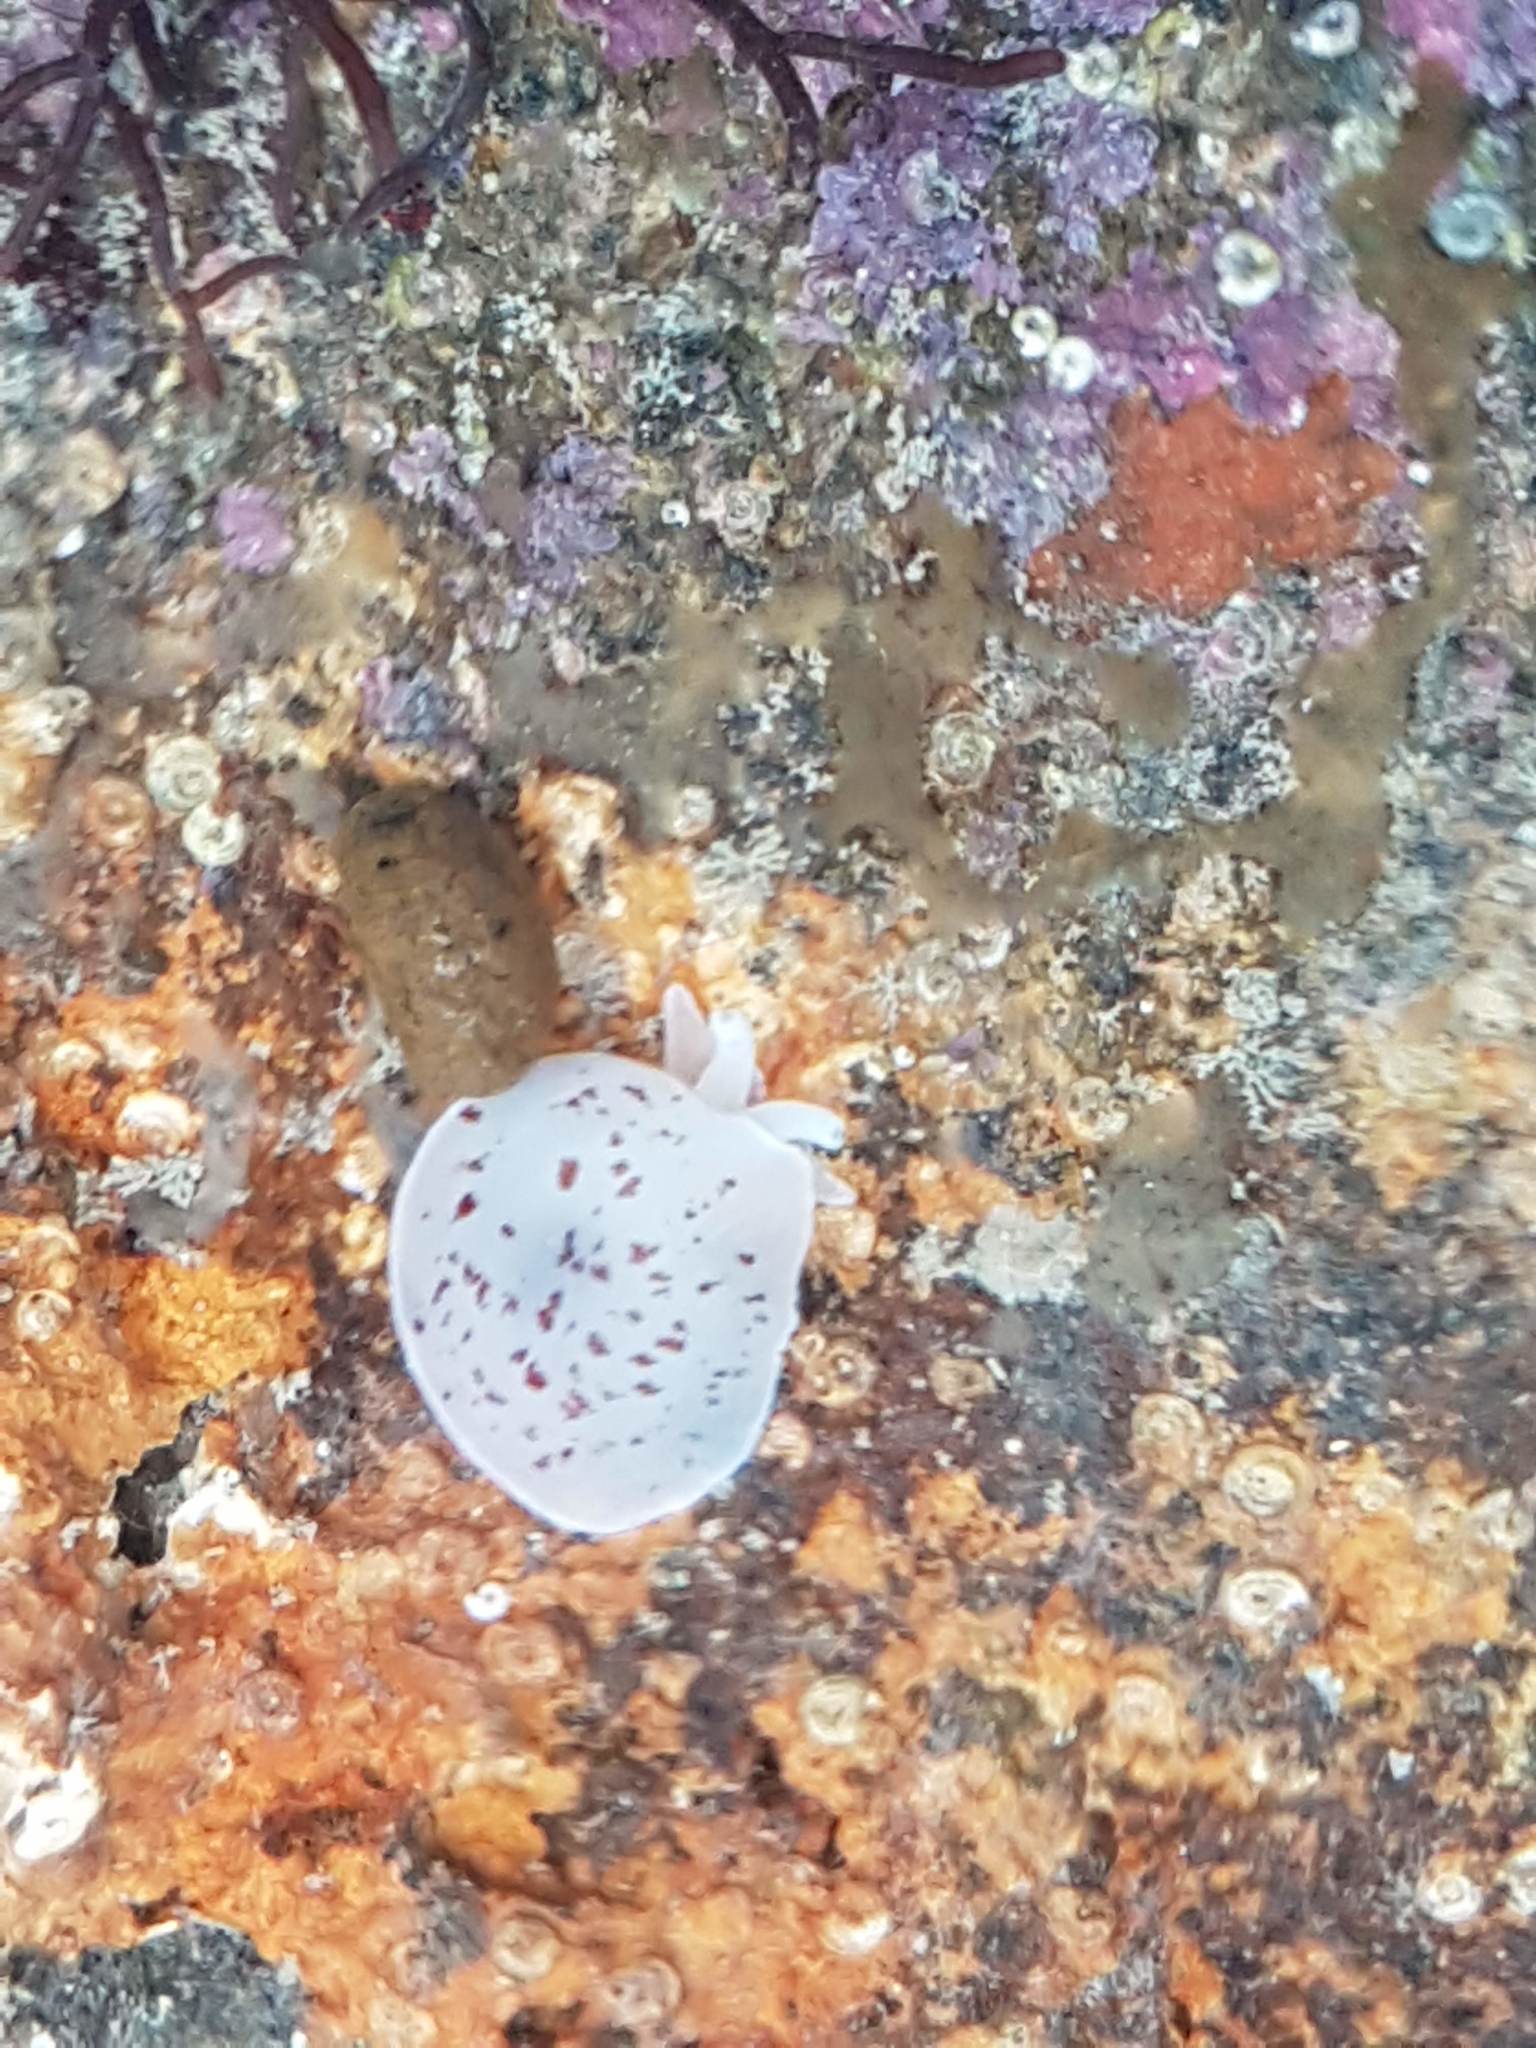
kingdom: Animalia
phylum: Mollusca
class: Gastropoda
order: Pleurobranchida
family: Pleurobranchidae
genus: Berthella
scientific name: Berthella ornata
